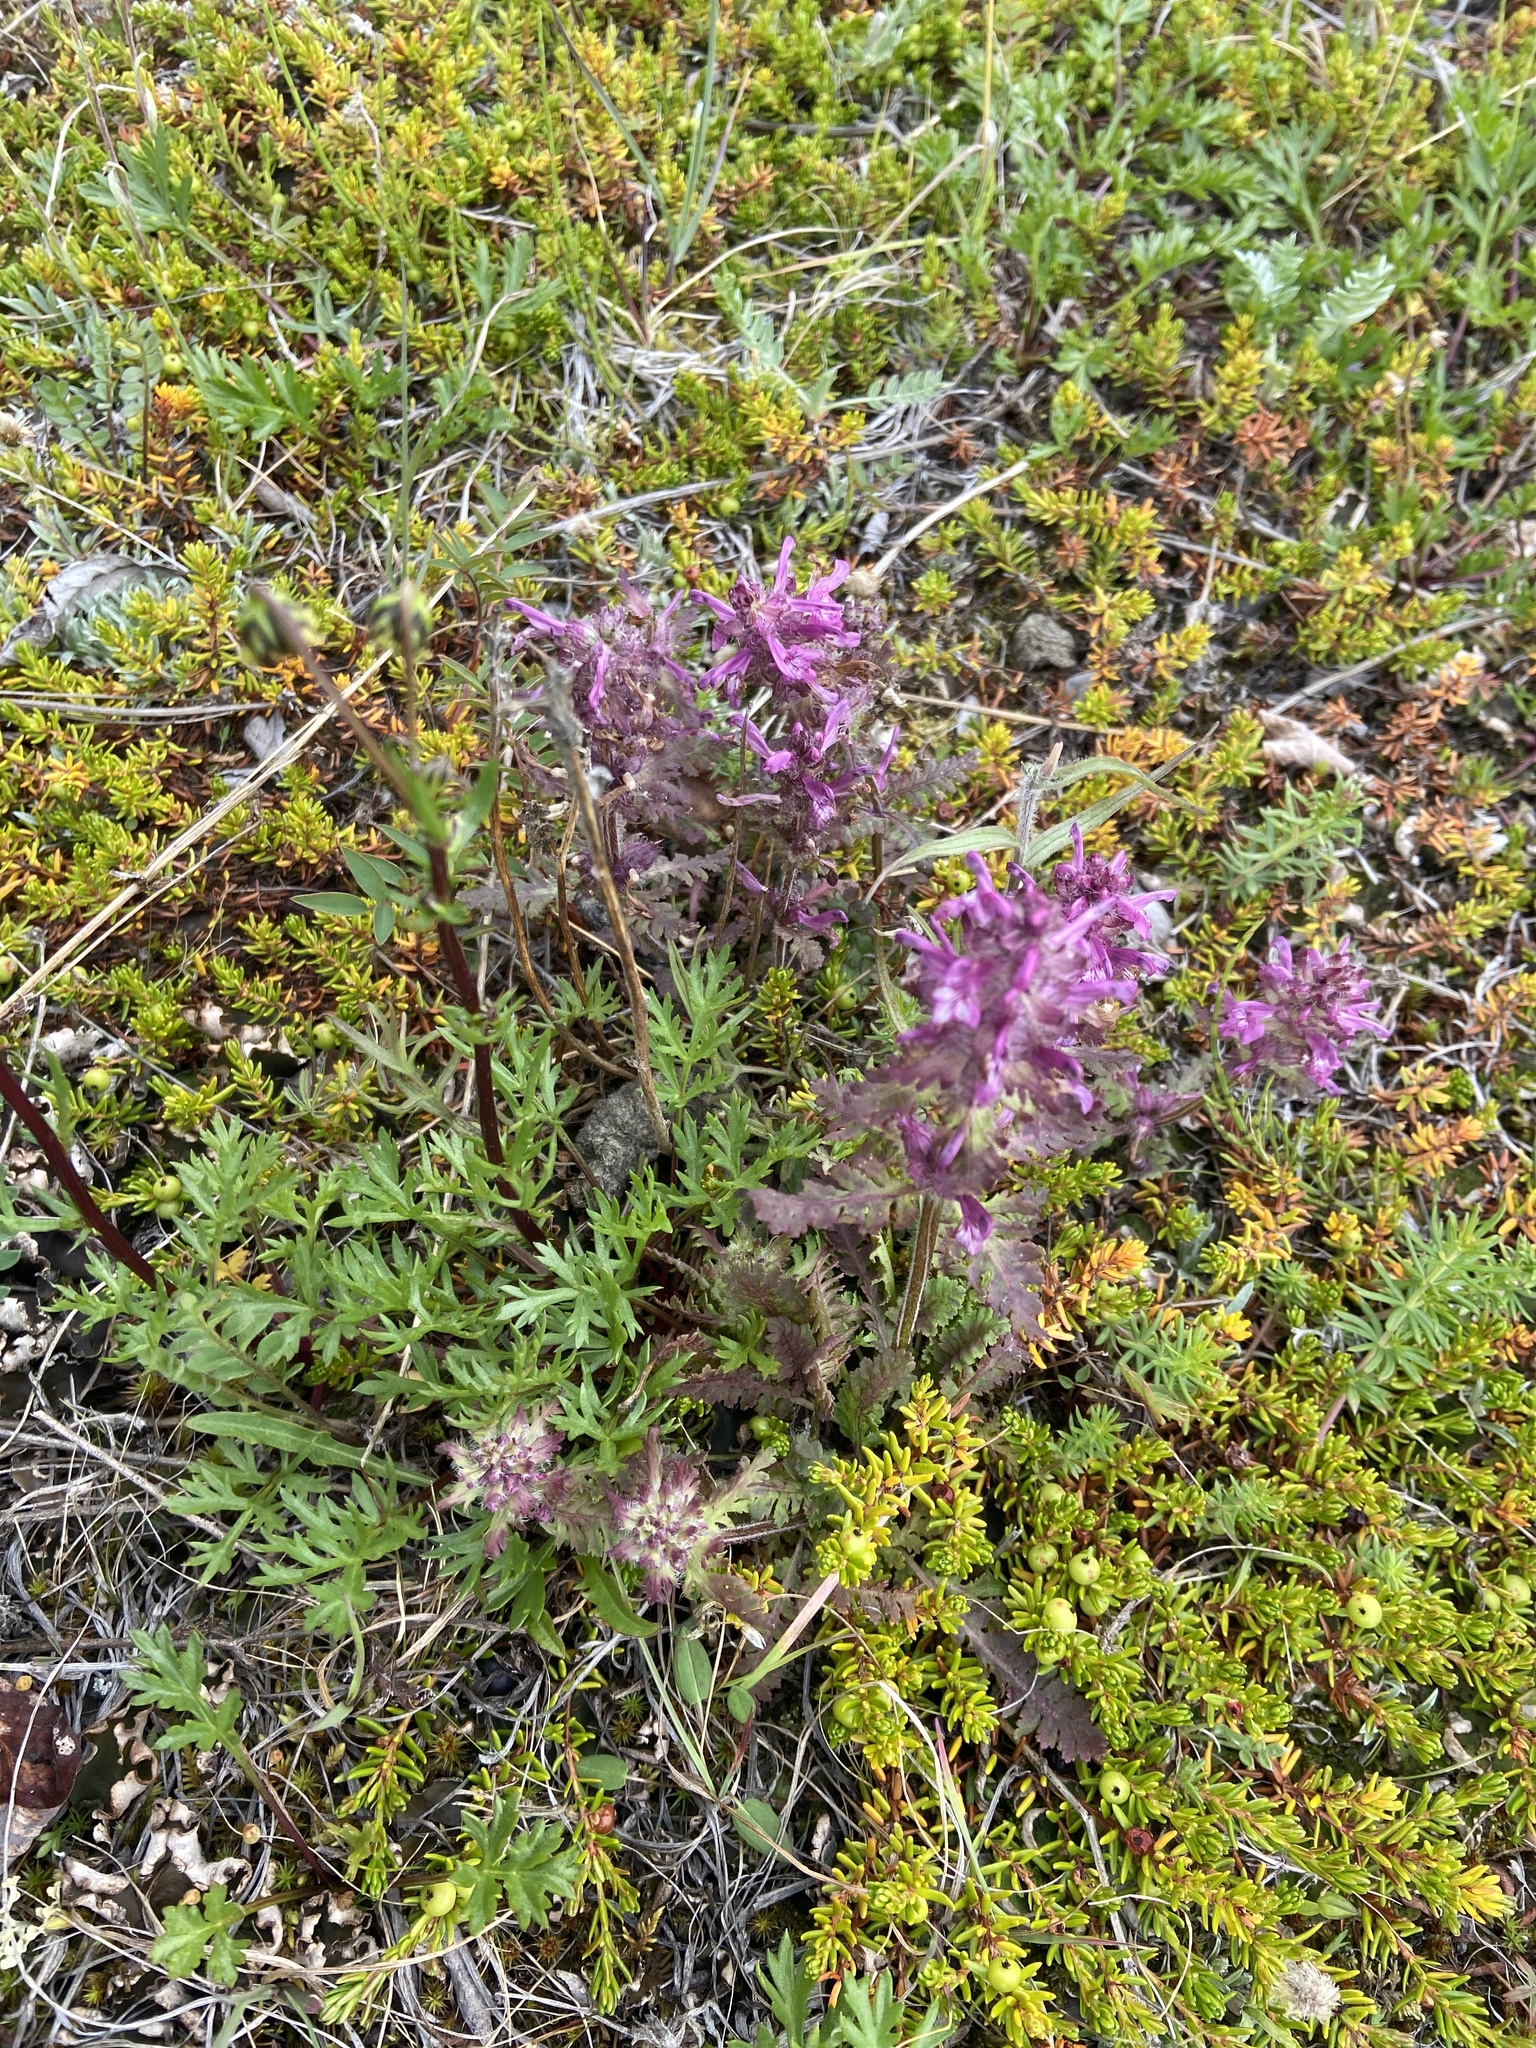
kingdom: Plantae
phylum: Tracheophyta
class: Magnoliopsida
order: Lamiales
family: Orobanchaceae
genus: Pedicularis
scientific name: Pedicularis verticillata
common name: Whorled lousewort
